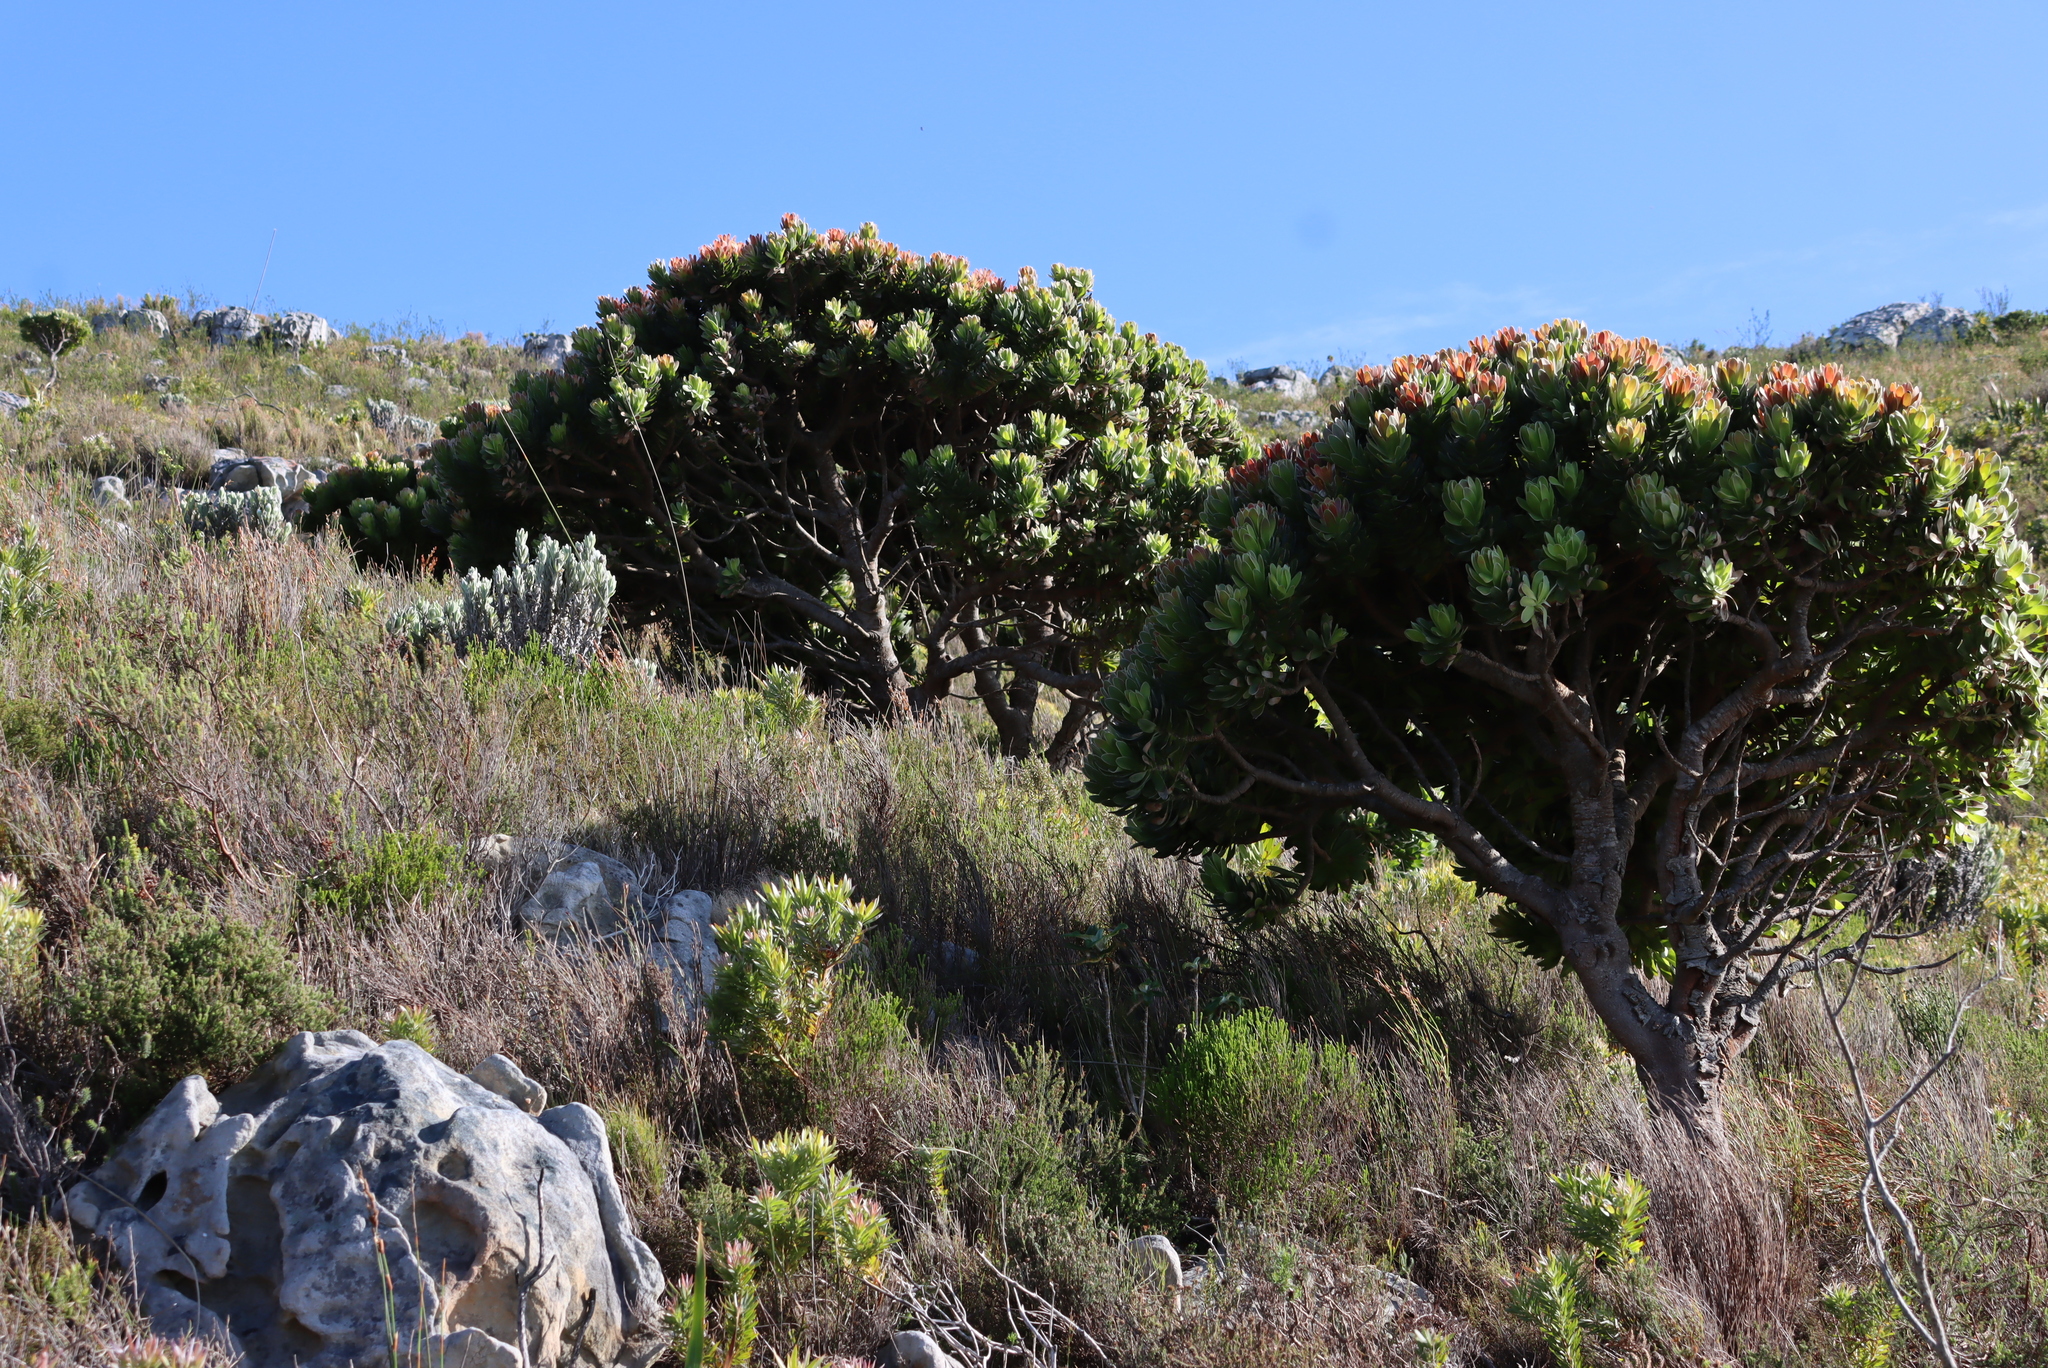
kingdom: Plantae
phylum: Tracheophyta
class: Magnoliopsida
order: Proteales
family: Proteaceae
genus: Mimetes
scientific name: Mimetes fimbriifolius
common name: Fringed bottlebrush
